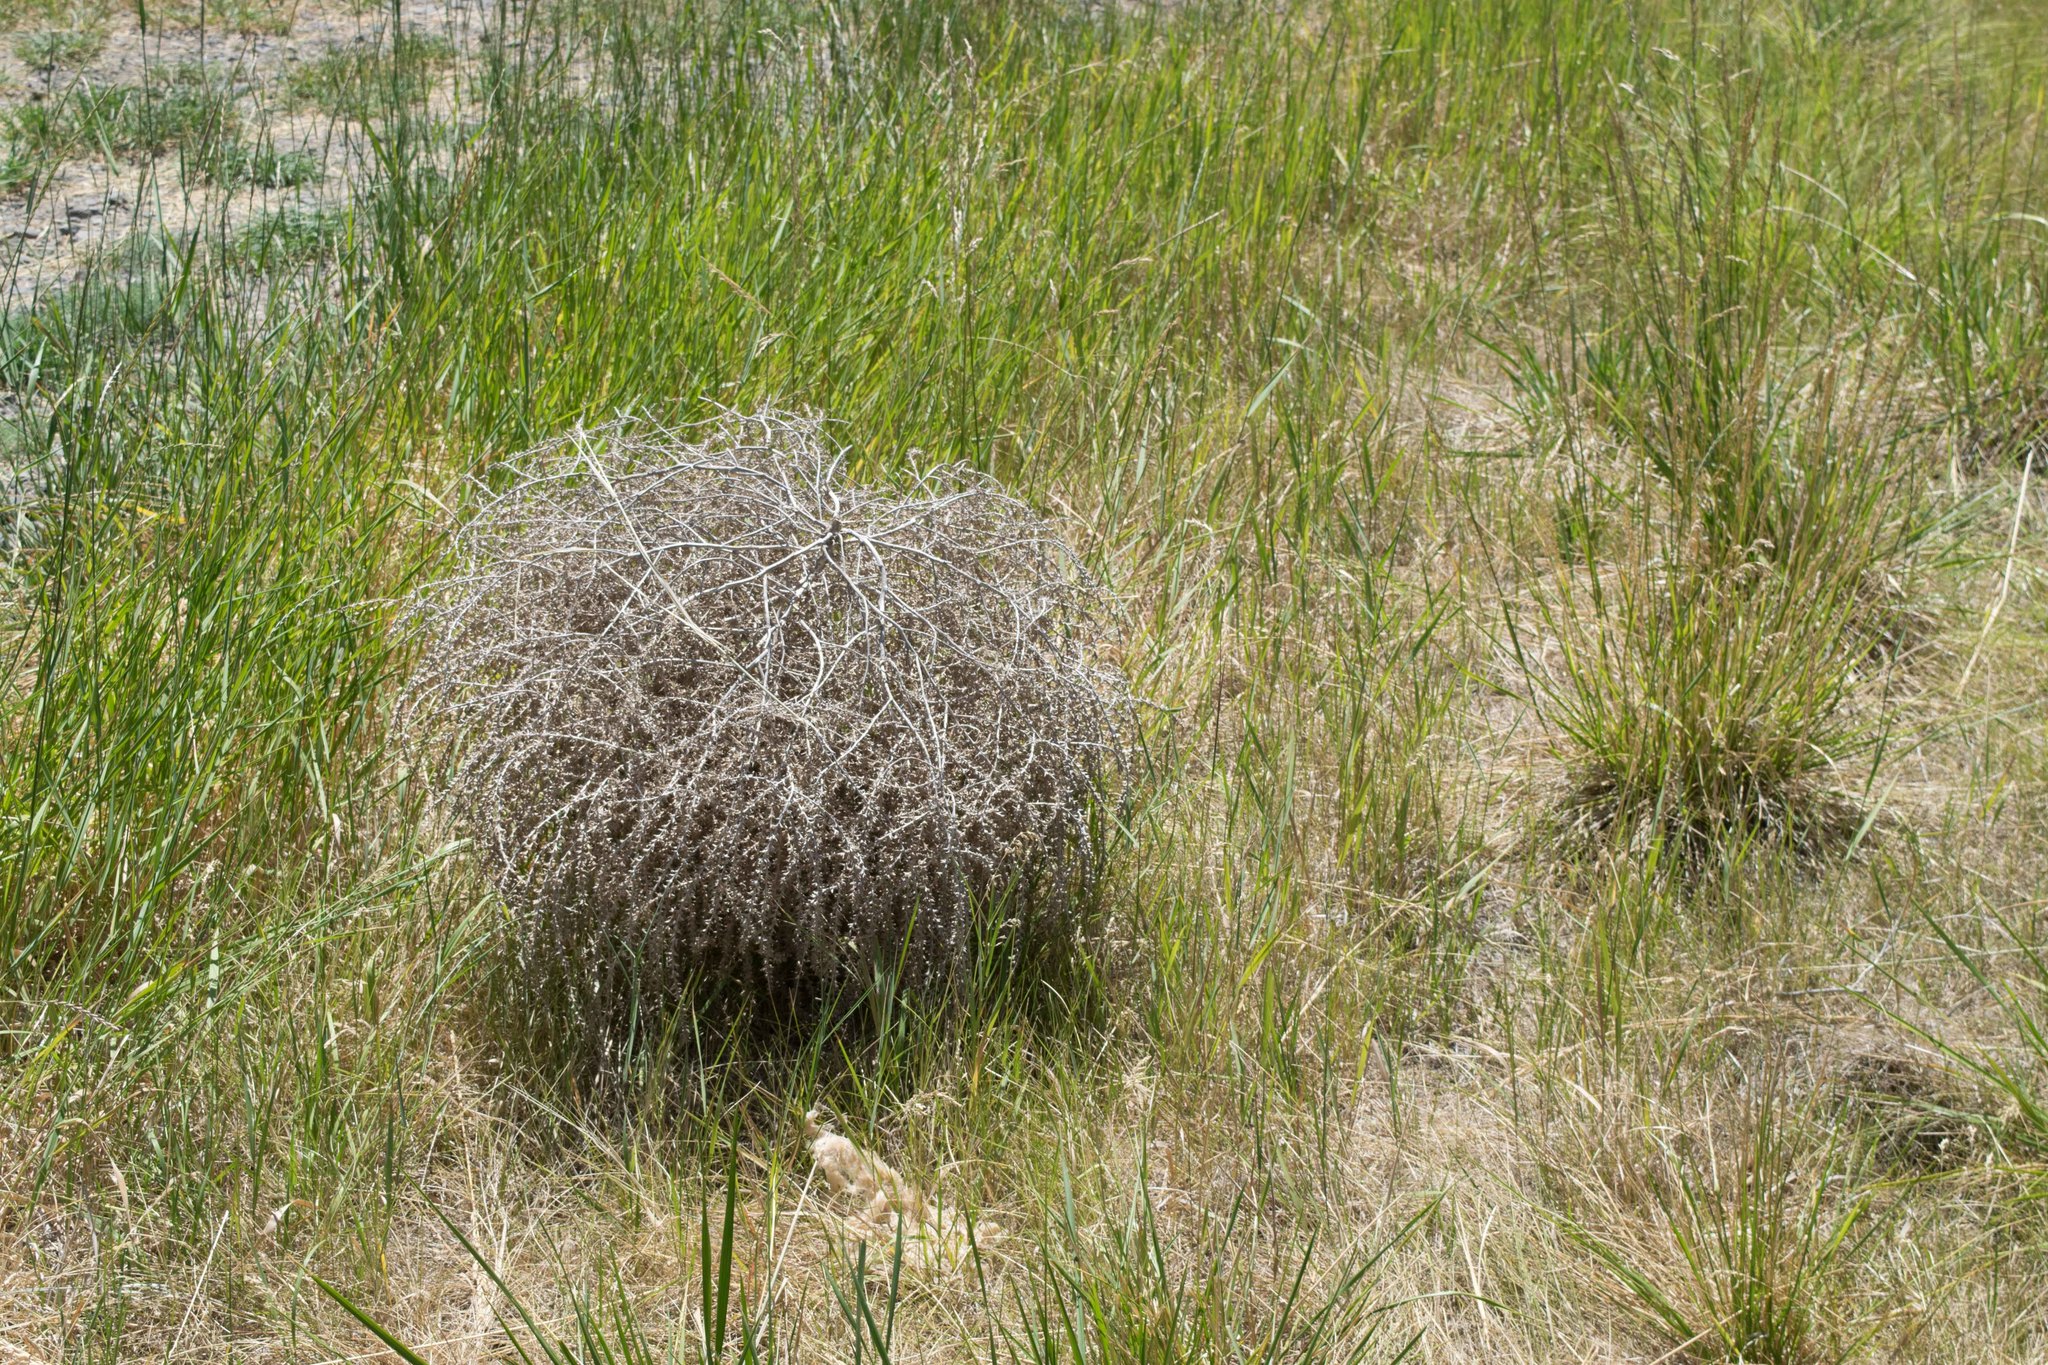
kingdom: Plantae
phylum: Tracheophyta
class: Magnoliopsida
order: Caryophyllales
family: Amaranthaceae
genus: Salsola
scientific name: Salsola tragus
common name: Prickly russian thistle
